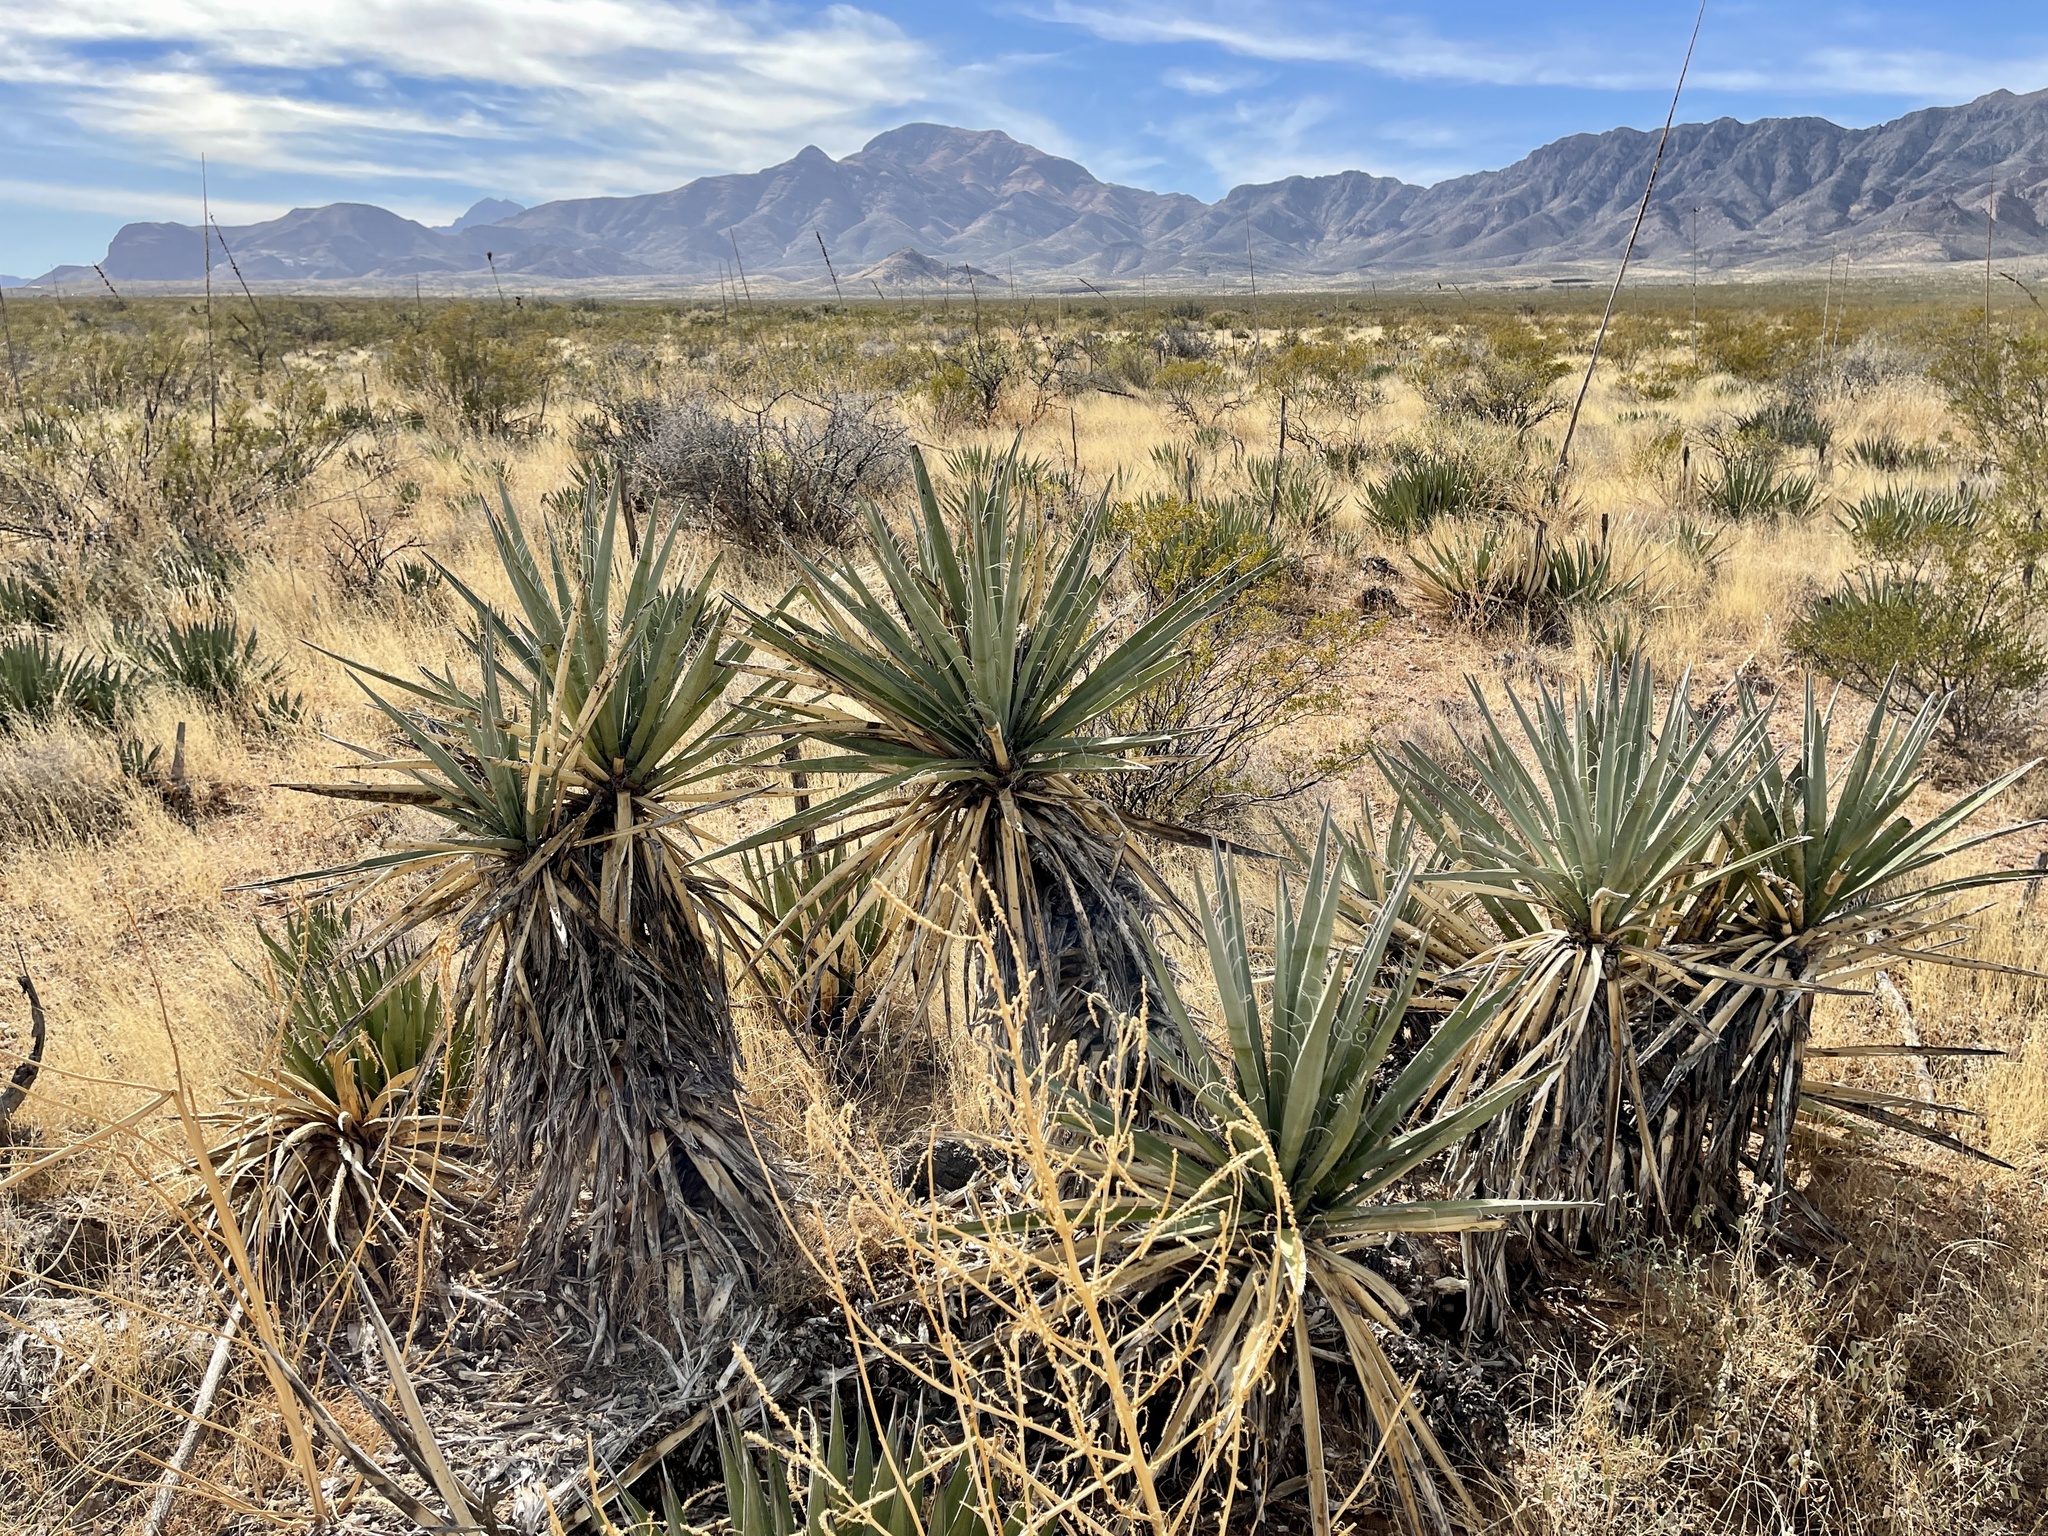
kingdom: Plantae
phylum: Tracheophyta
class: Liliopsida
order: Asparagales
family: Asparagaceae
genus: Yucca
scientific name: Yucca baccata
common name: Banana yucca
